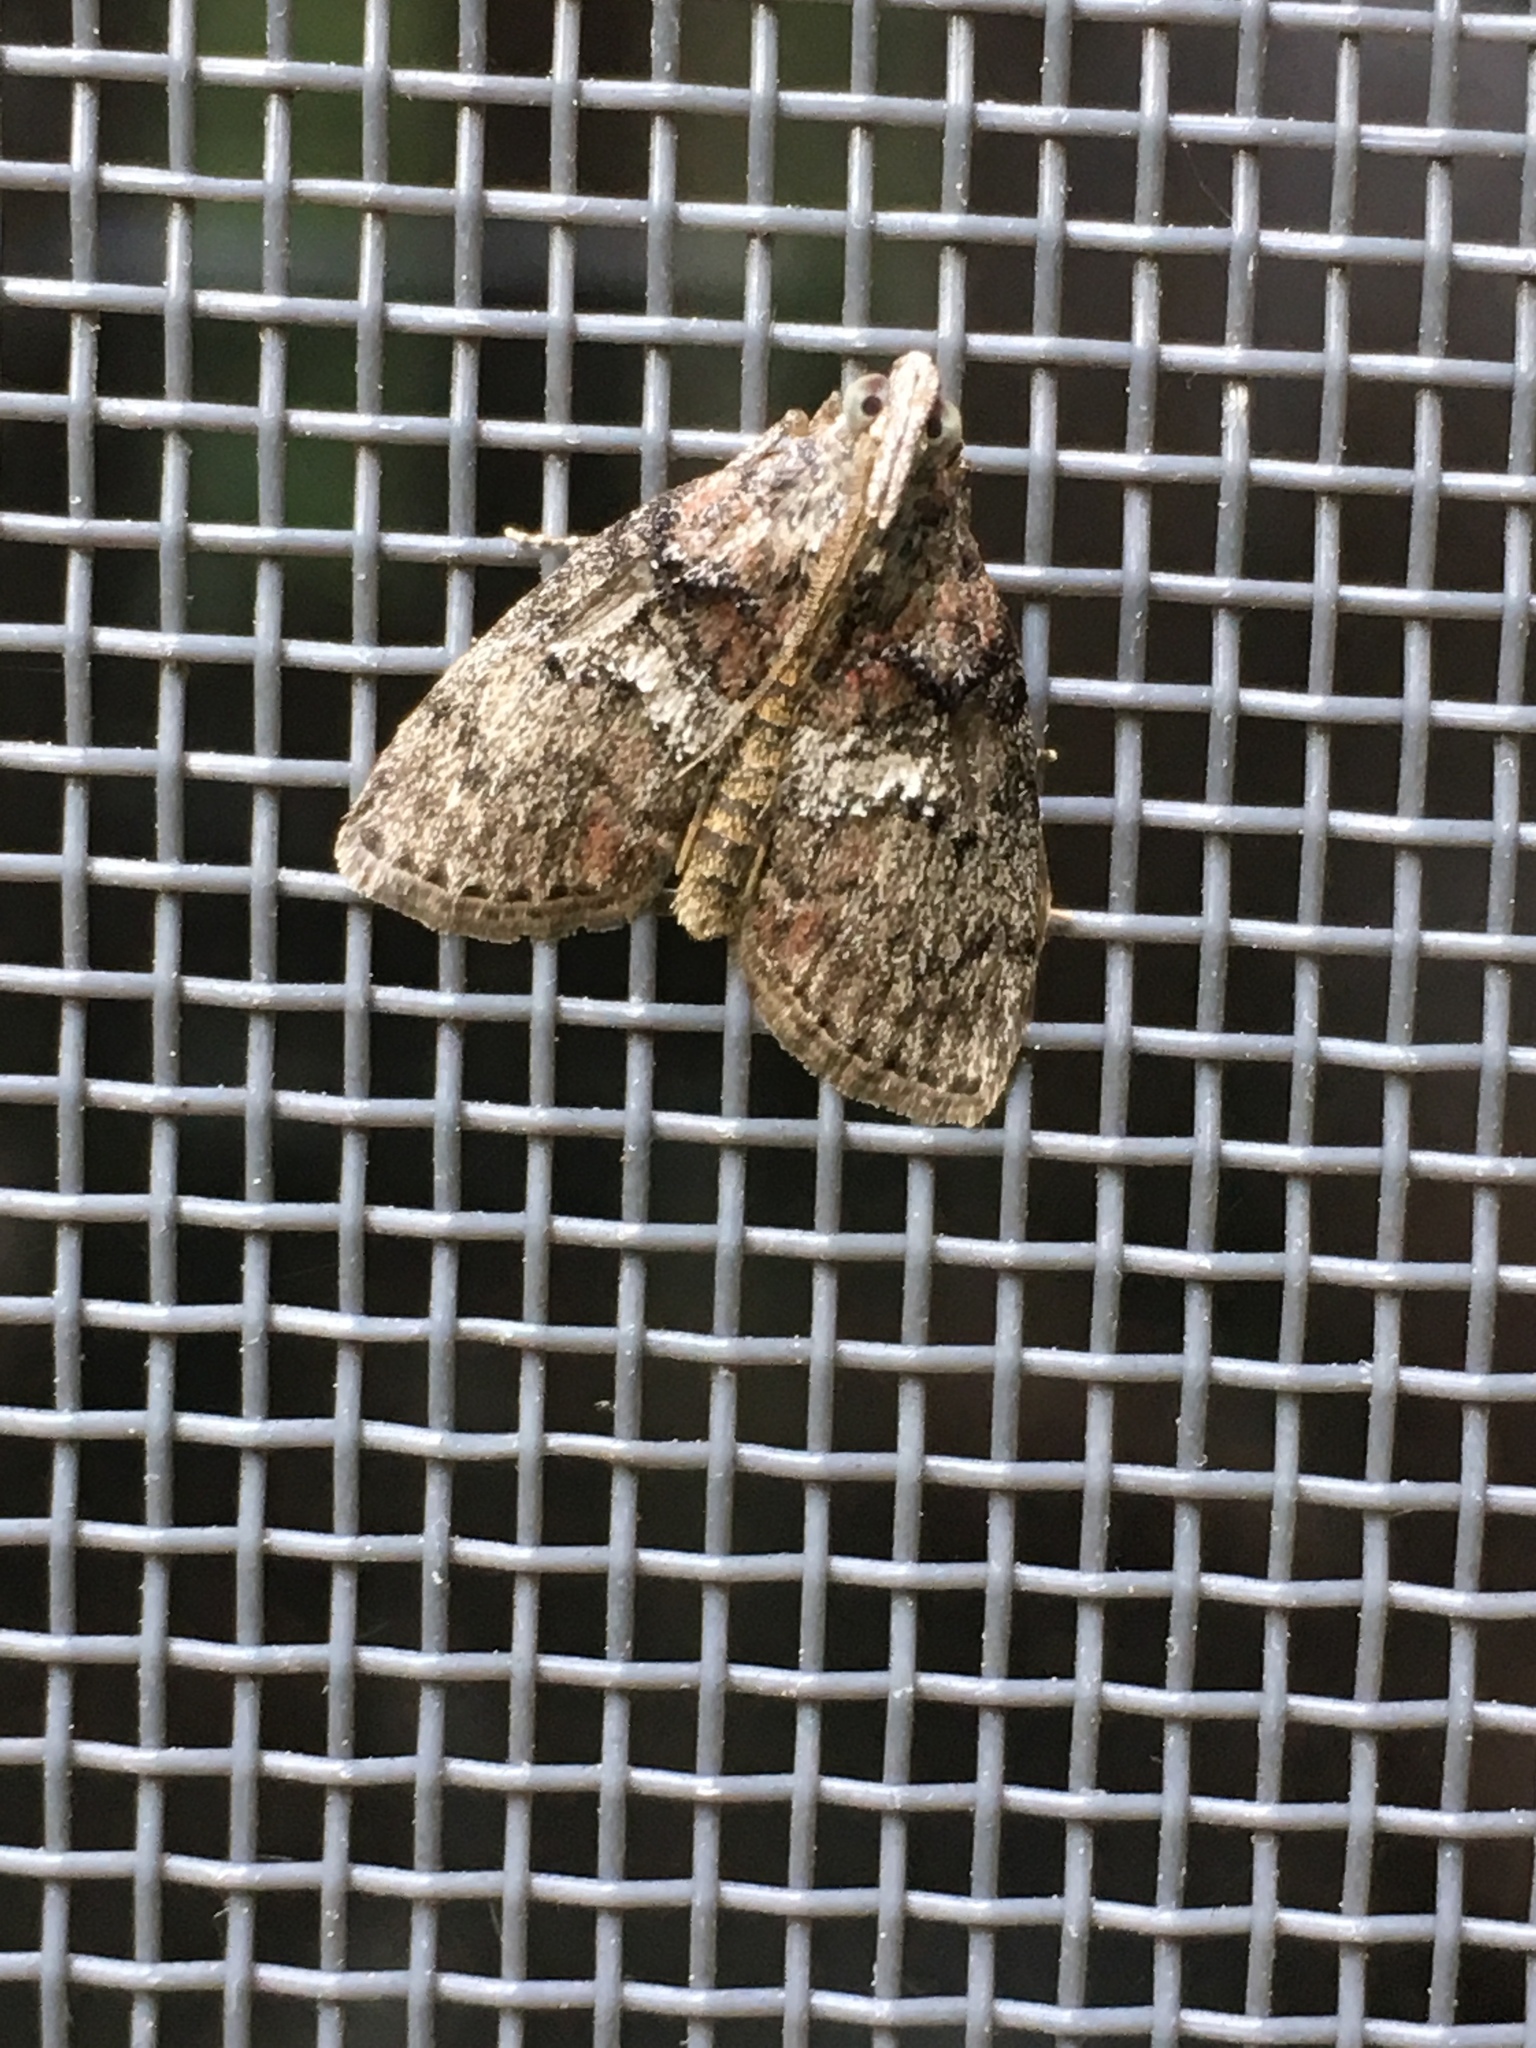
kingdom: Animalia
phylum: Arthropoda
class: Insecta
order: Lepidoptera
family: Pyralidae
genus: Pococera
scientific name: Pococera asperatella
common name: Maple webworm moth
